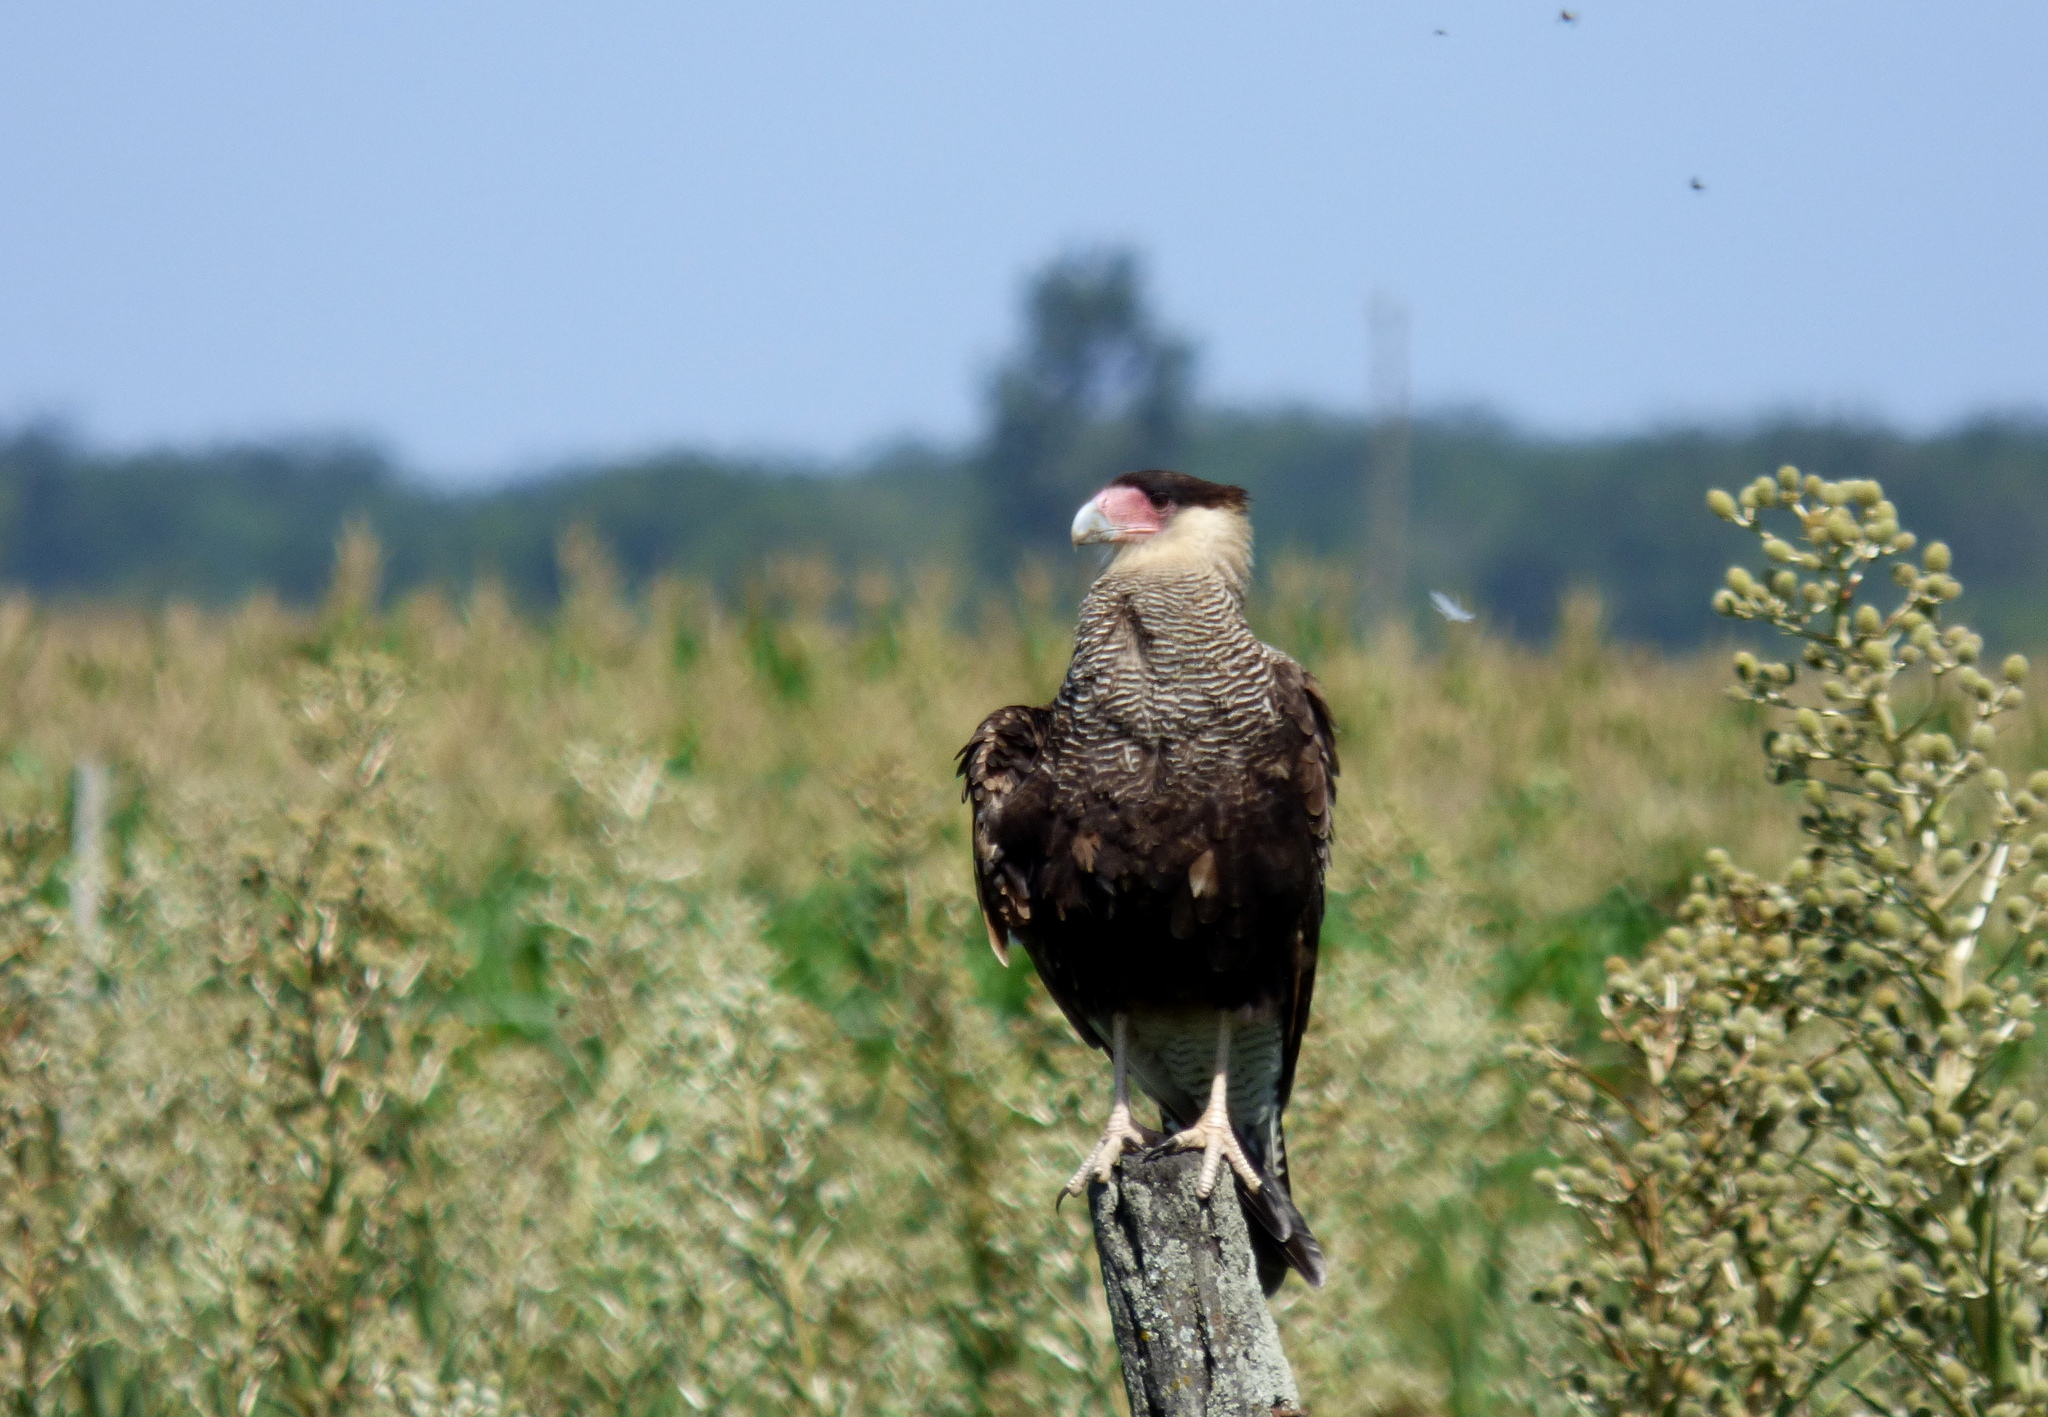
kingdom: Animalia
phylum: Chordata
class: Aves
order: Falconiformes
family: Falconidae
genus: Caracara
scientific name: Caracara plancus
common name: Southern caracara
